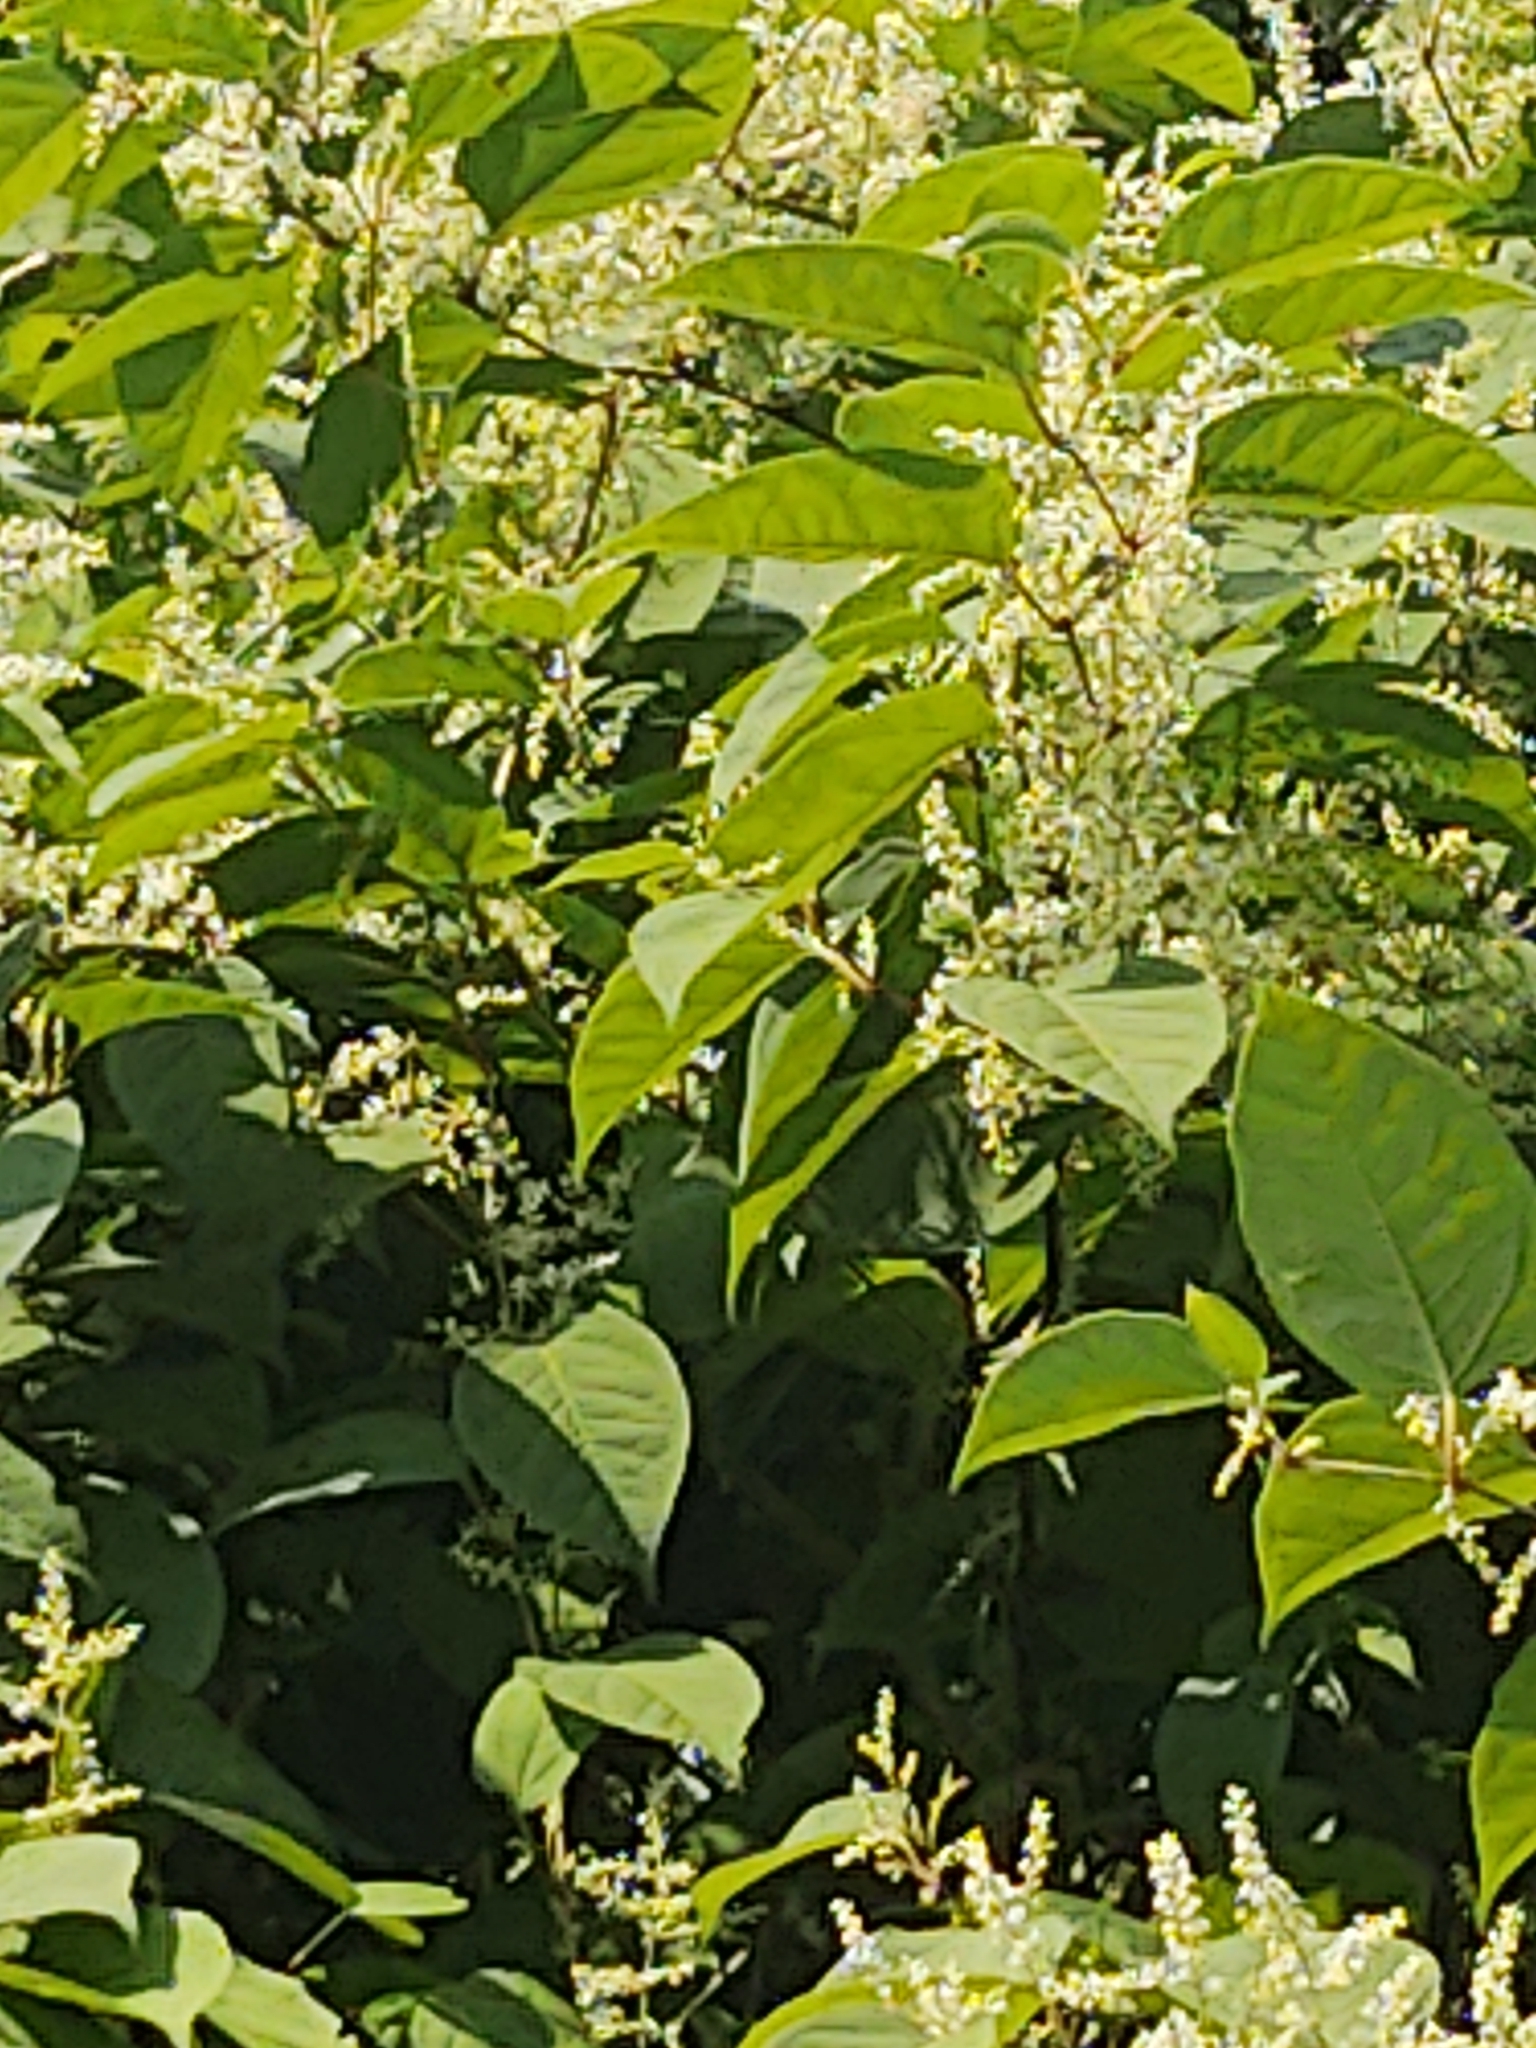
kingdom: Plantae
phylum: Tracheophyta
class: Magnoliopsida
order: Caryophyllales
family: Polygonaceae
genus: Reynoutria
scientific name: Reynoutria japonica
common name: Japanese knotweed
